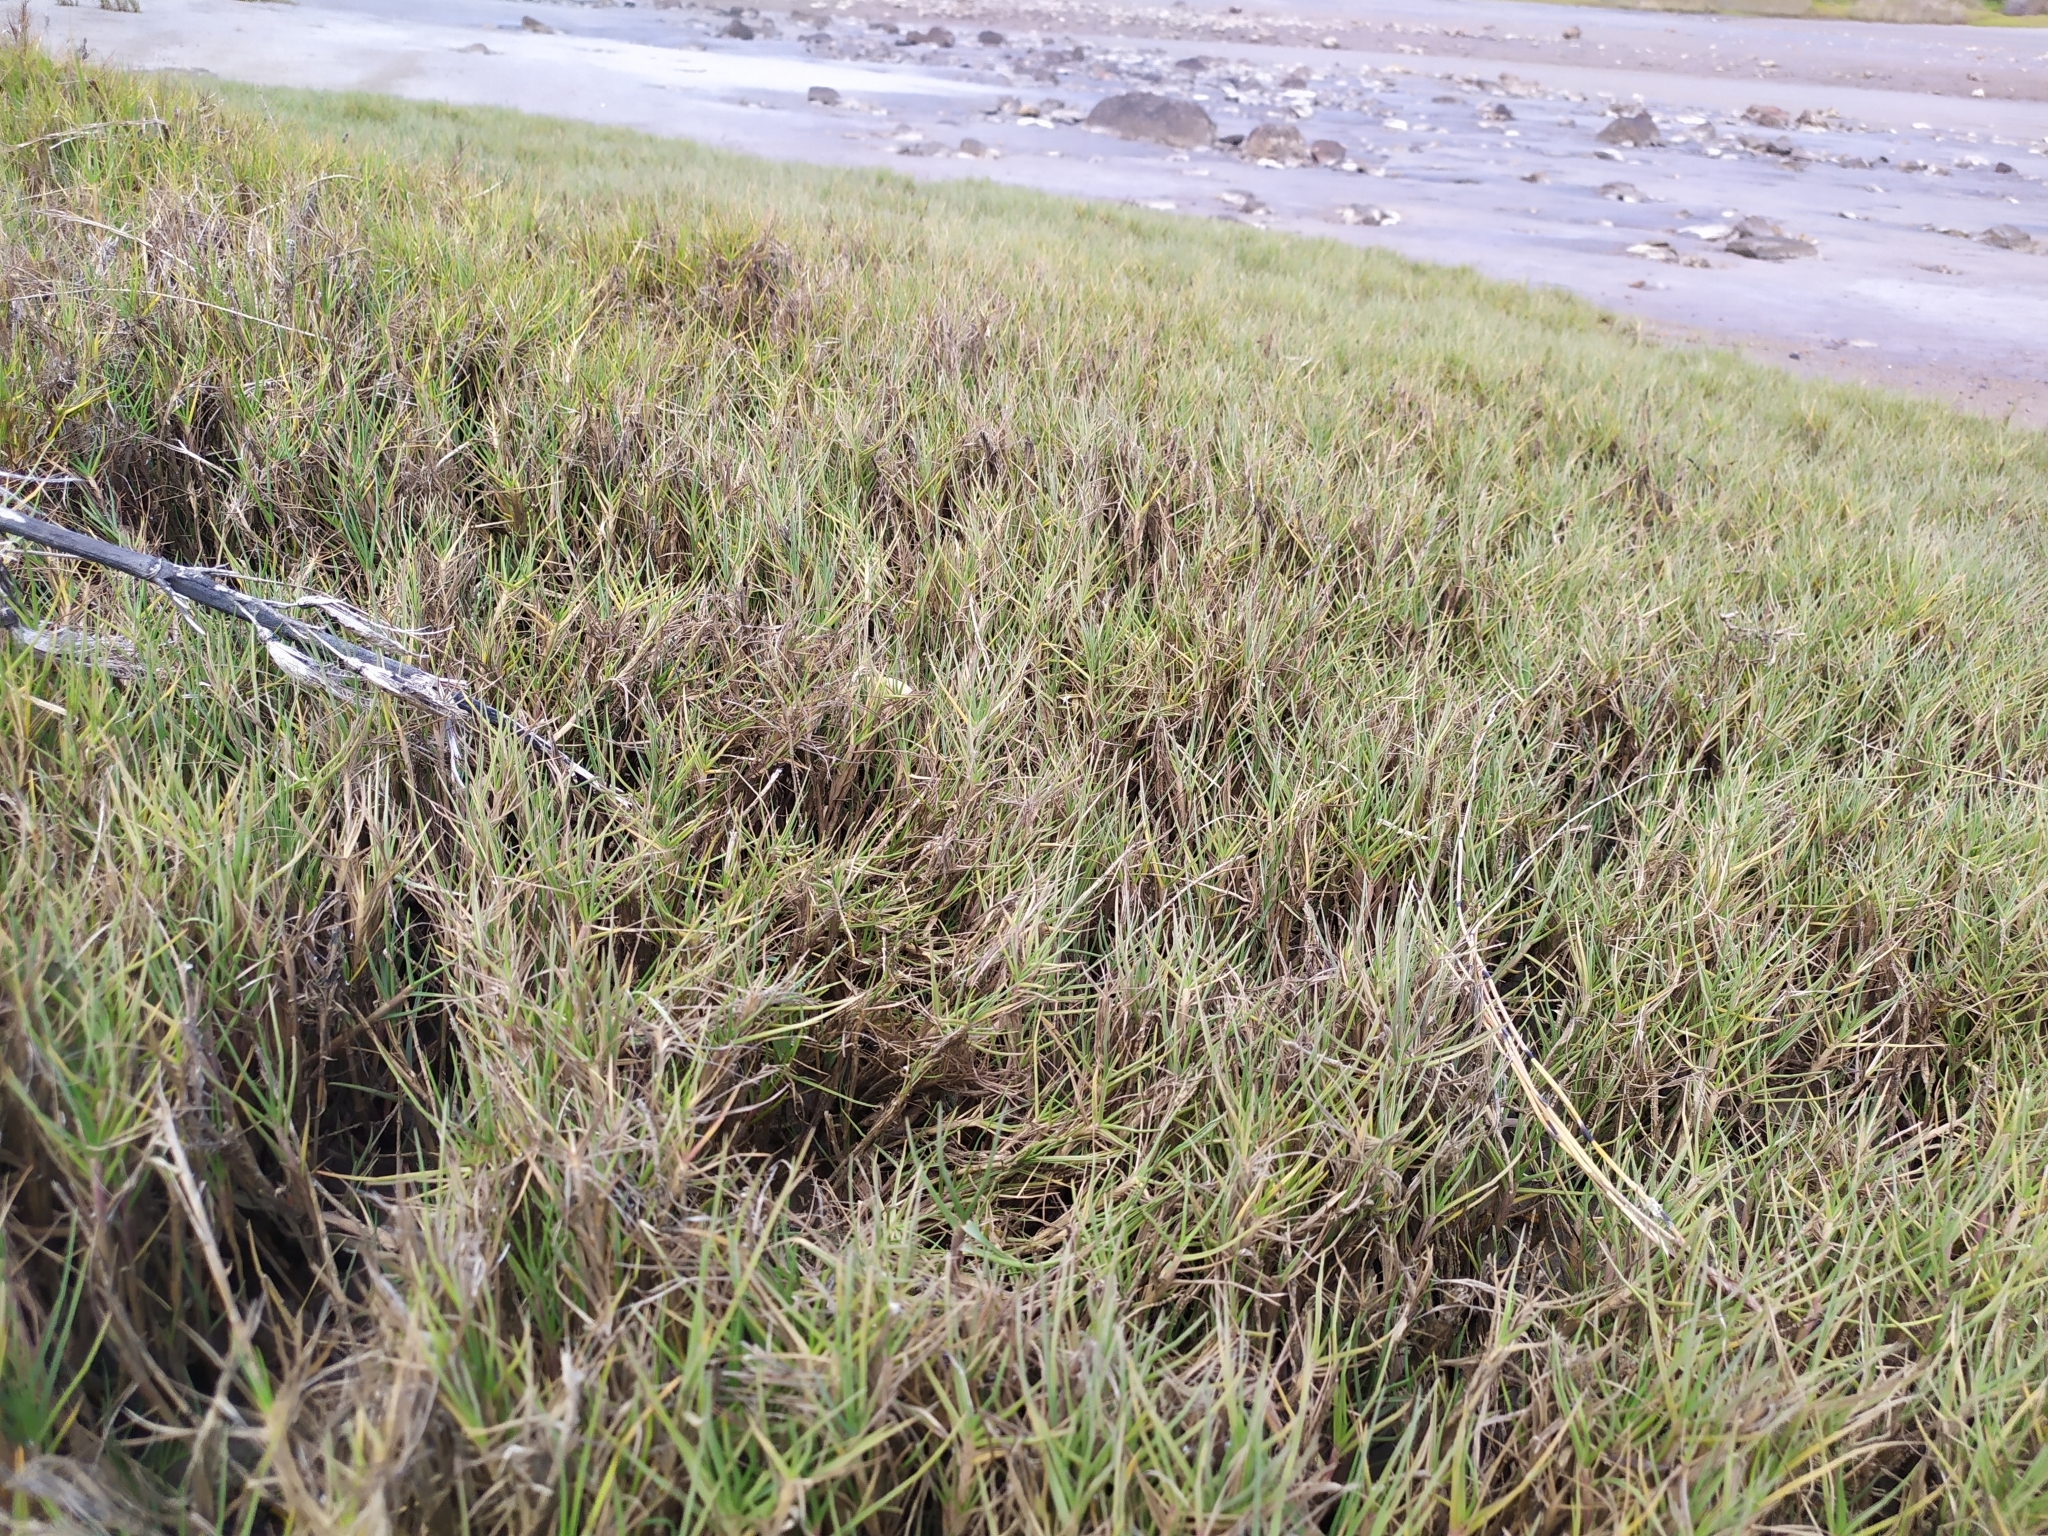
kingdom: Plantae
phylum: Tracheophyta
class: Liliopsida
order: Poales
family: Poaceae
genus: Paspalum
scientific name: Paspalum vaginatum
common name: Seashore paspalum
